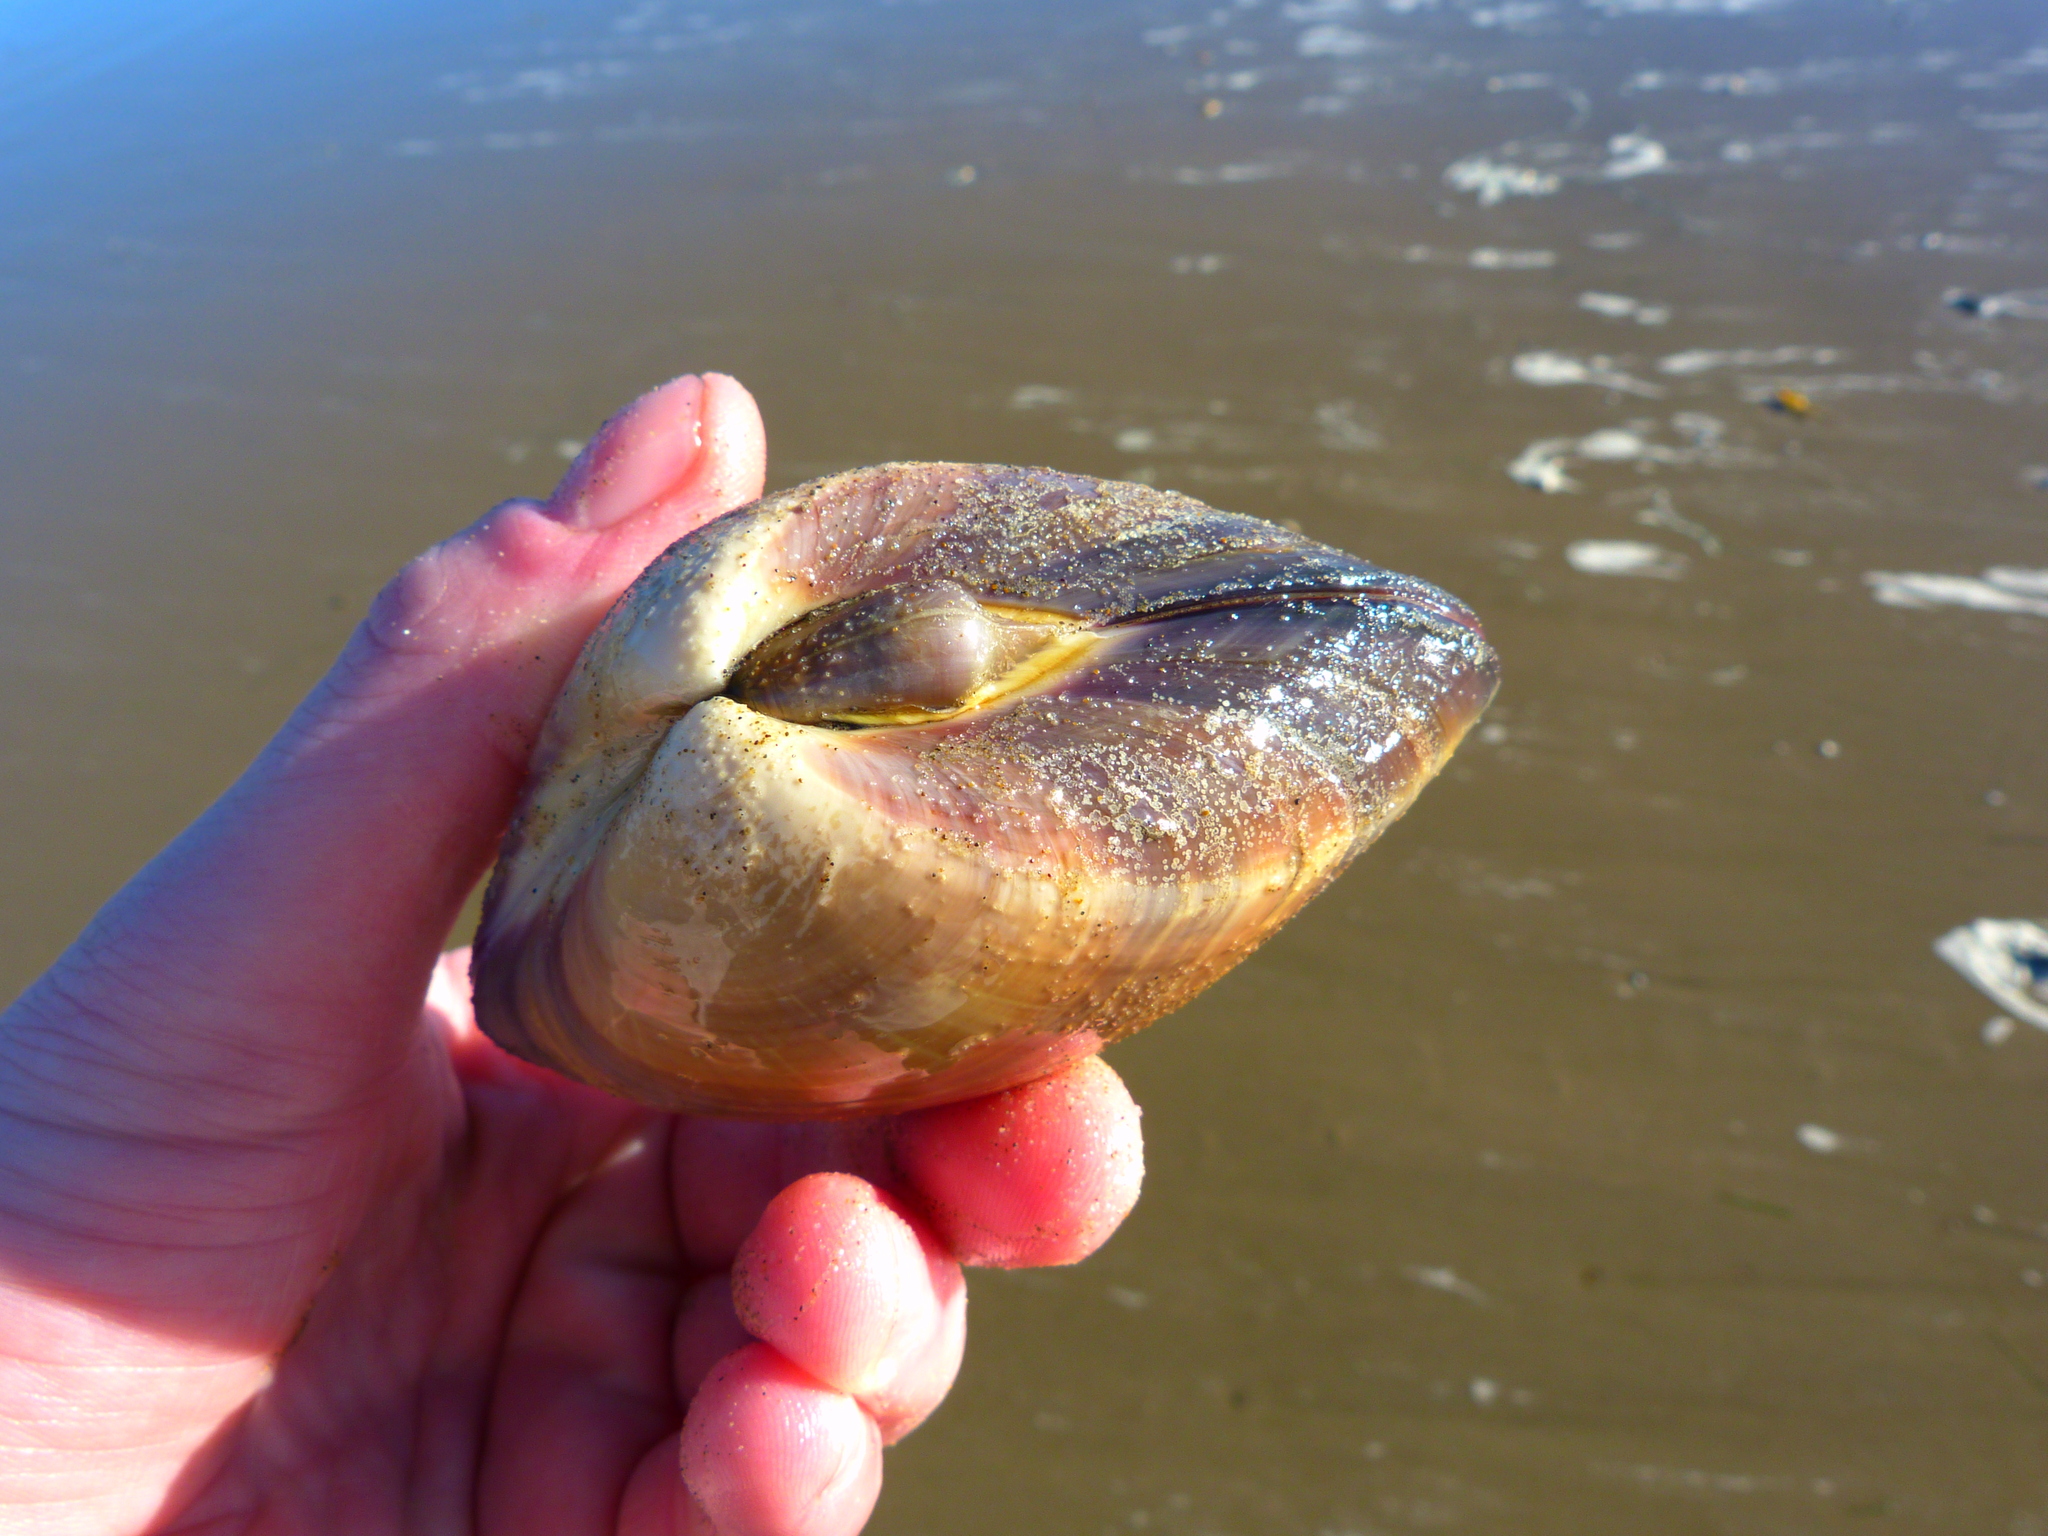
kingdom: Animalia
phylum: Mollusca
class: Bivalvia
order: Venerida
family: Veneridae
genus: Tivela
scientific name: Tivela stultorum
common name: Pismo clam
